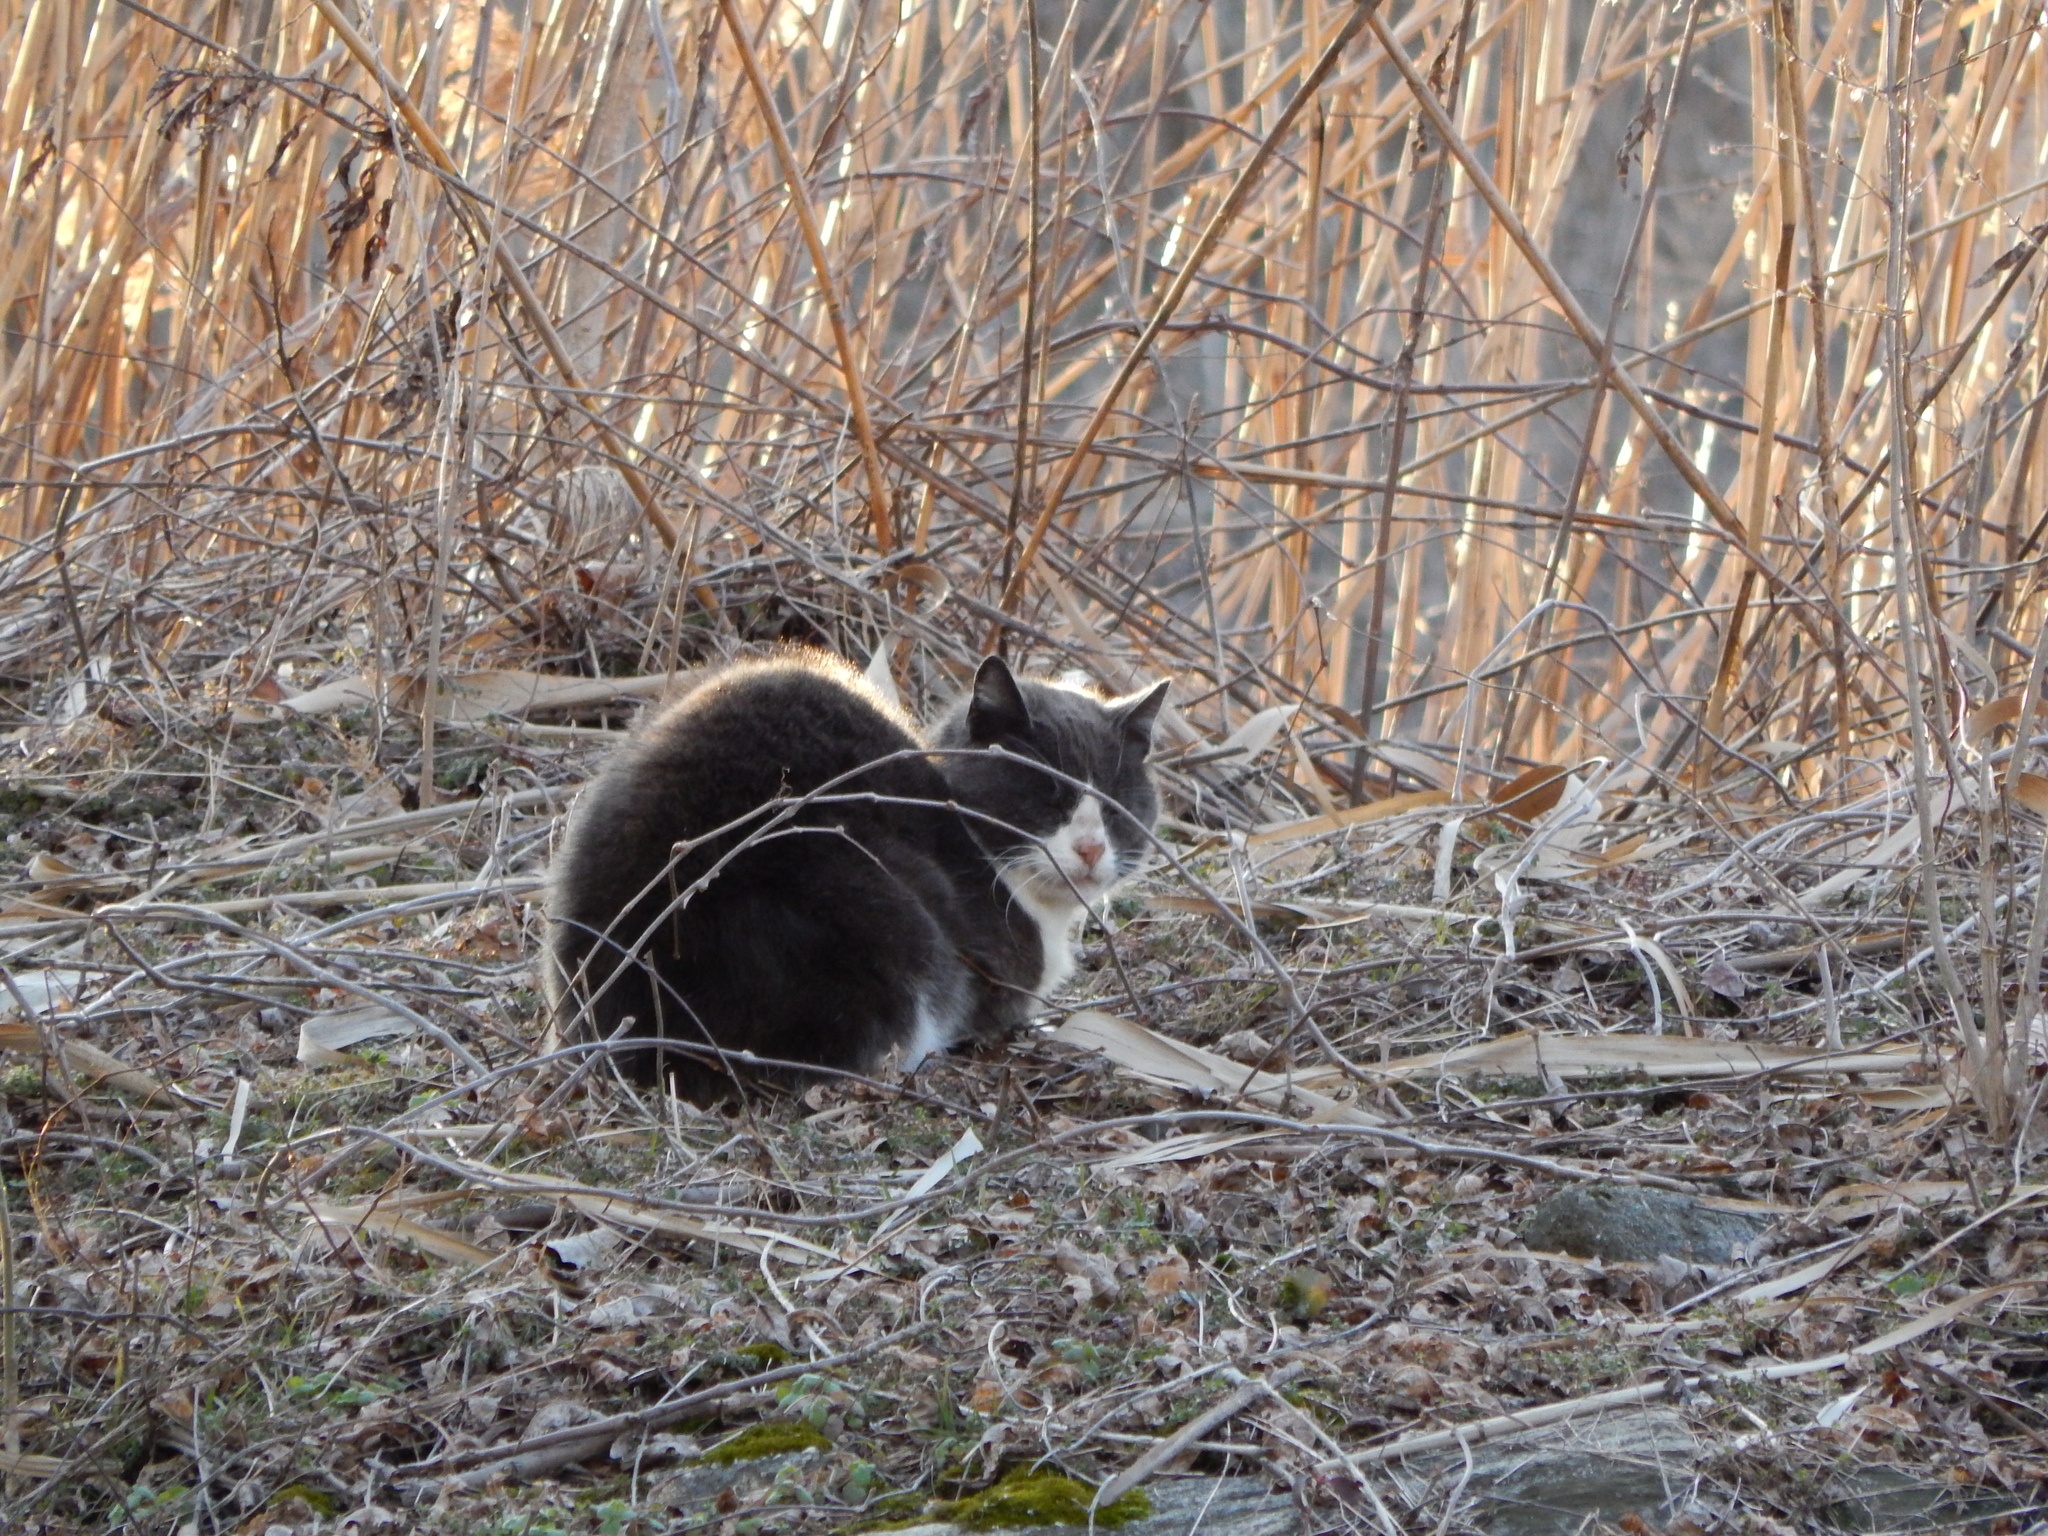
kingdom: Animalia
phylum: Chordata
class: Mammalia
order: Carnivora
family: Felidae
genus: Felis
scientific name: Felis catus
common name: Domestic cat
